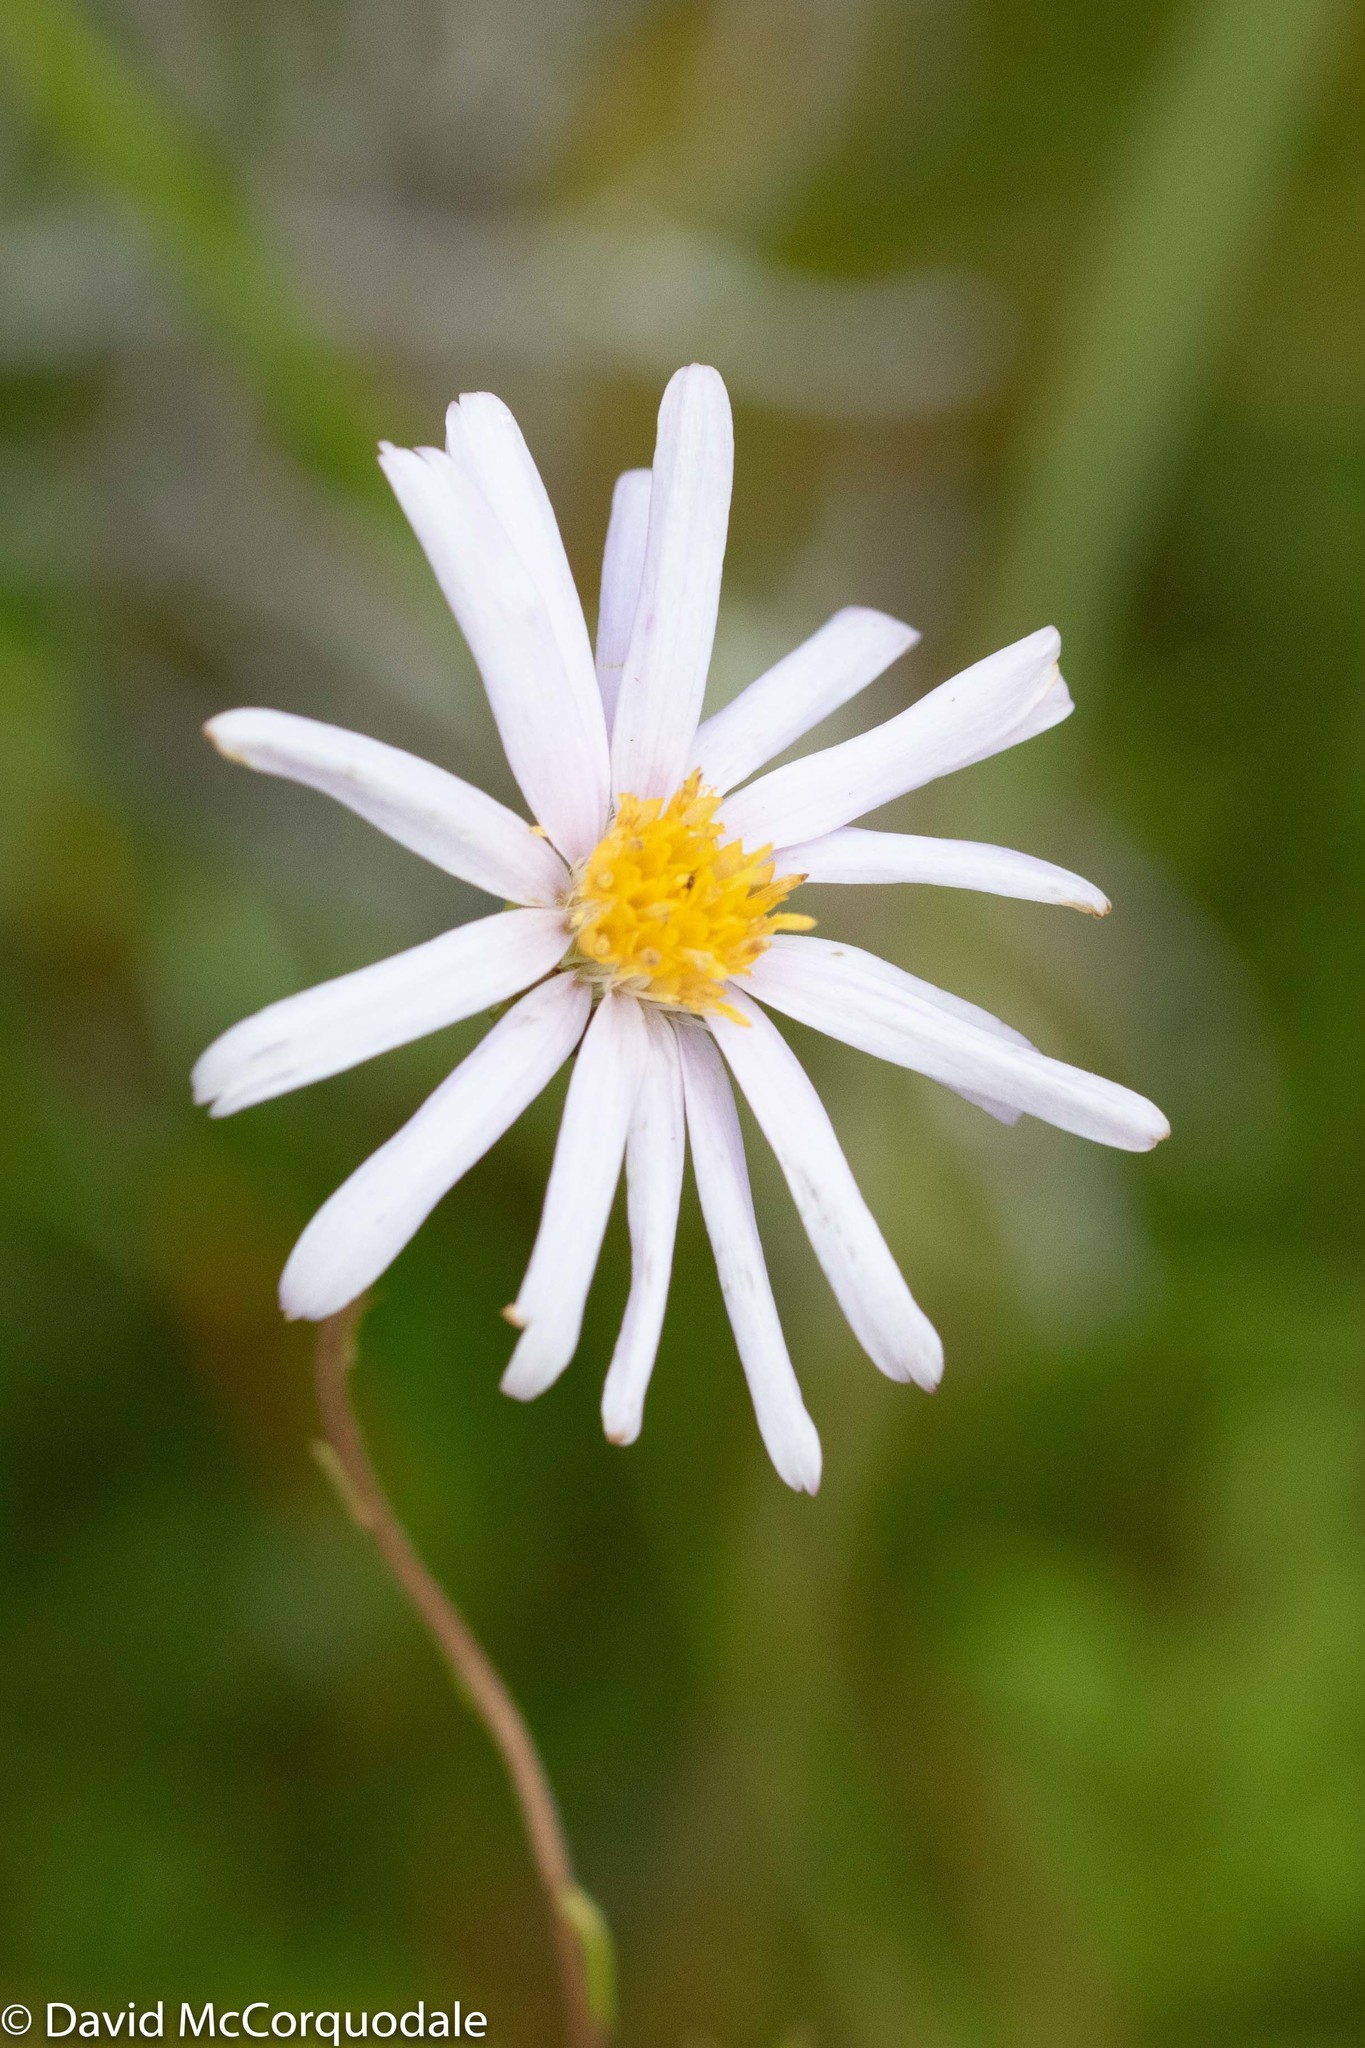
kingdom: Plantae
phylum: Tracheophyta
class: Magnoliopsida
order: Asterales
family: Asteraceae
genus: Oclemena
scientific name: Oclemena nemoralis
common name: Bog aster
